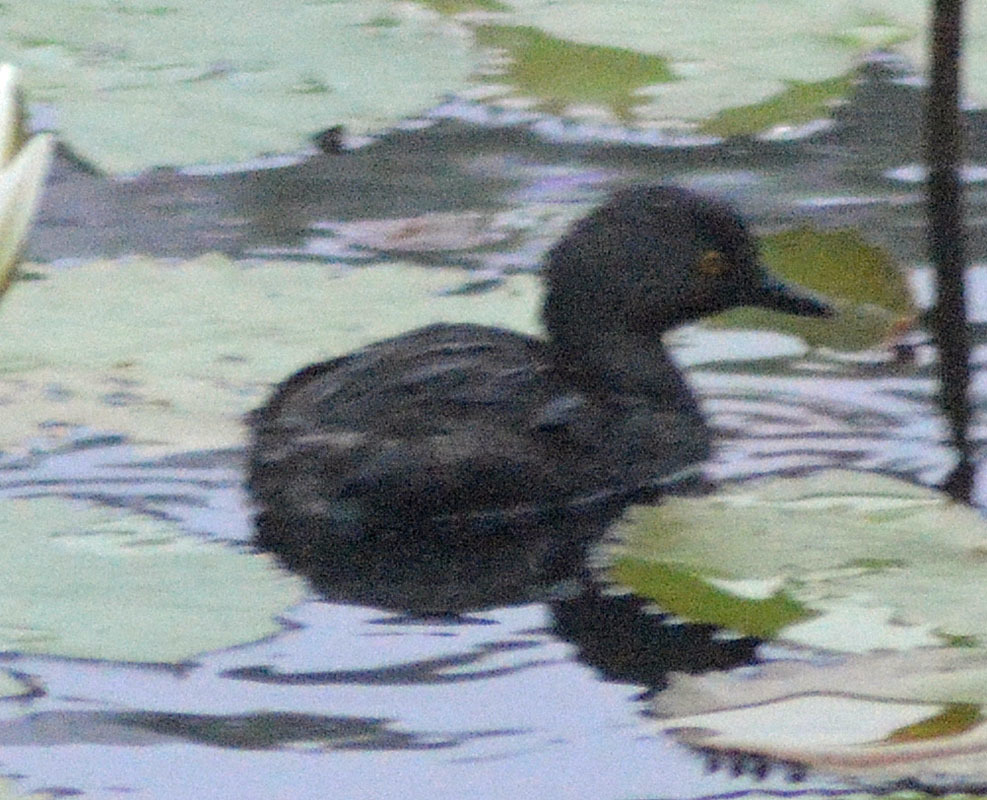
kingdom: Animalia
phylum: Chordata
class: Aves
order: Podicipediformes
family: Podicipedidae
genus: Tachybaptus
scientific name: Tachybaptus dominicus
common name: Least grebe
